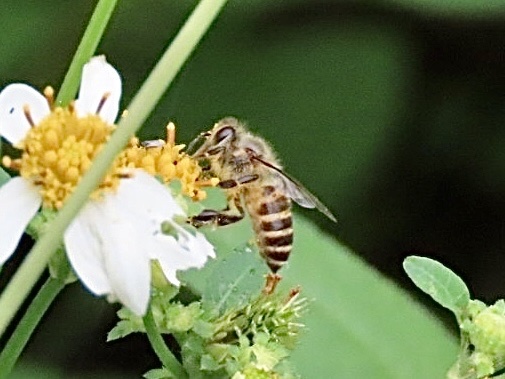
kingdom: Animalia
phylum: Arthropoda
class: Insecta
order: Hymenoptera
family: Apidae
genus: Apis
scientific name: Apis cerana
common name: Honey bee
